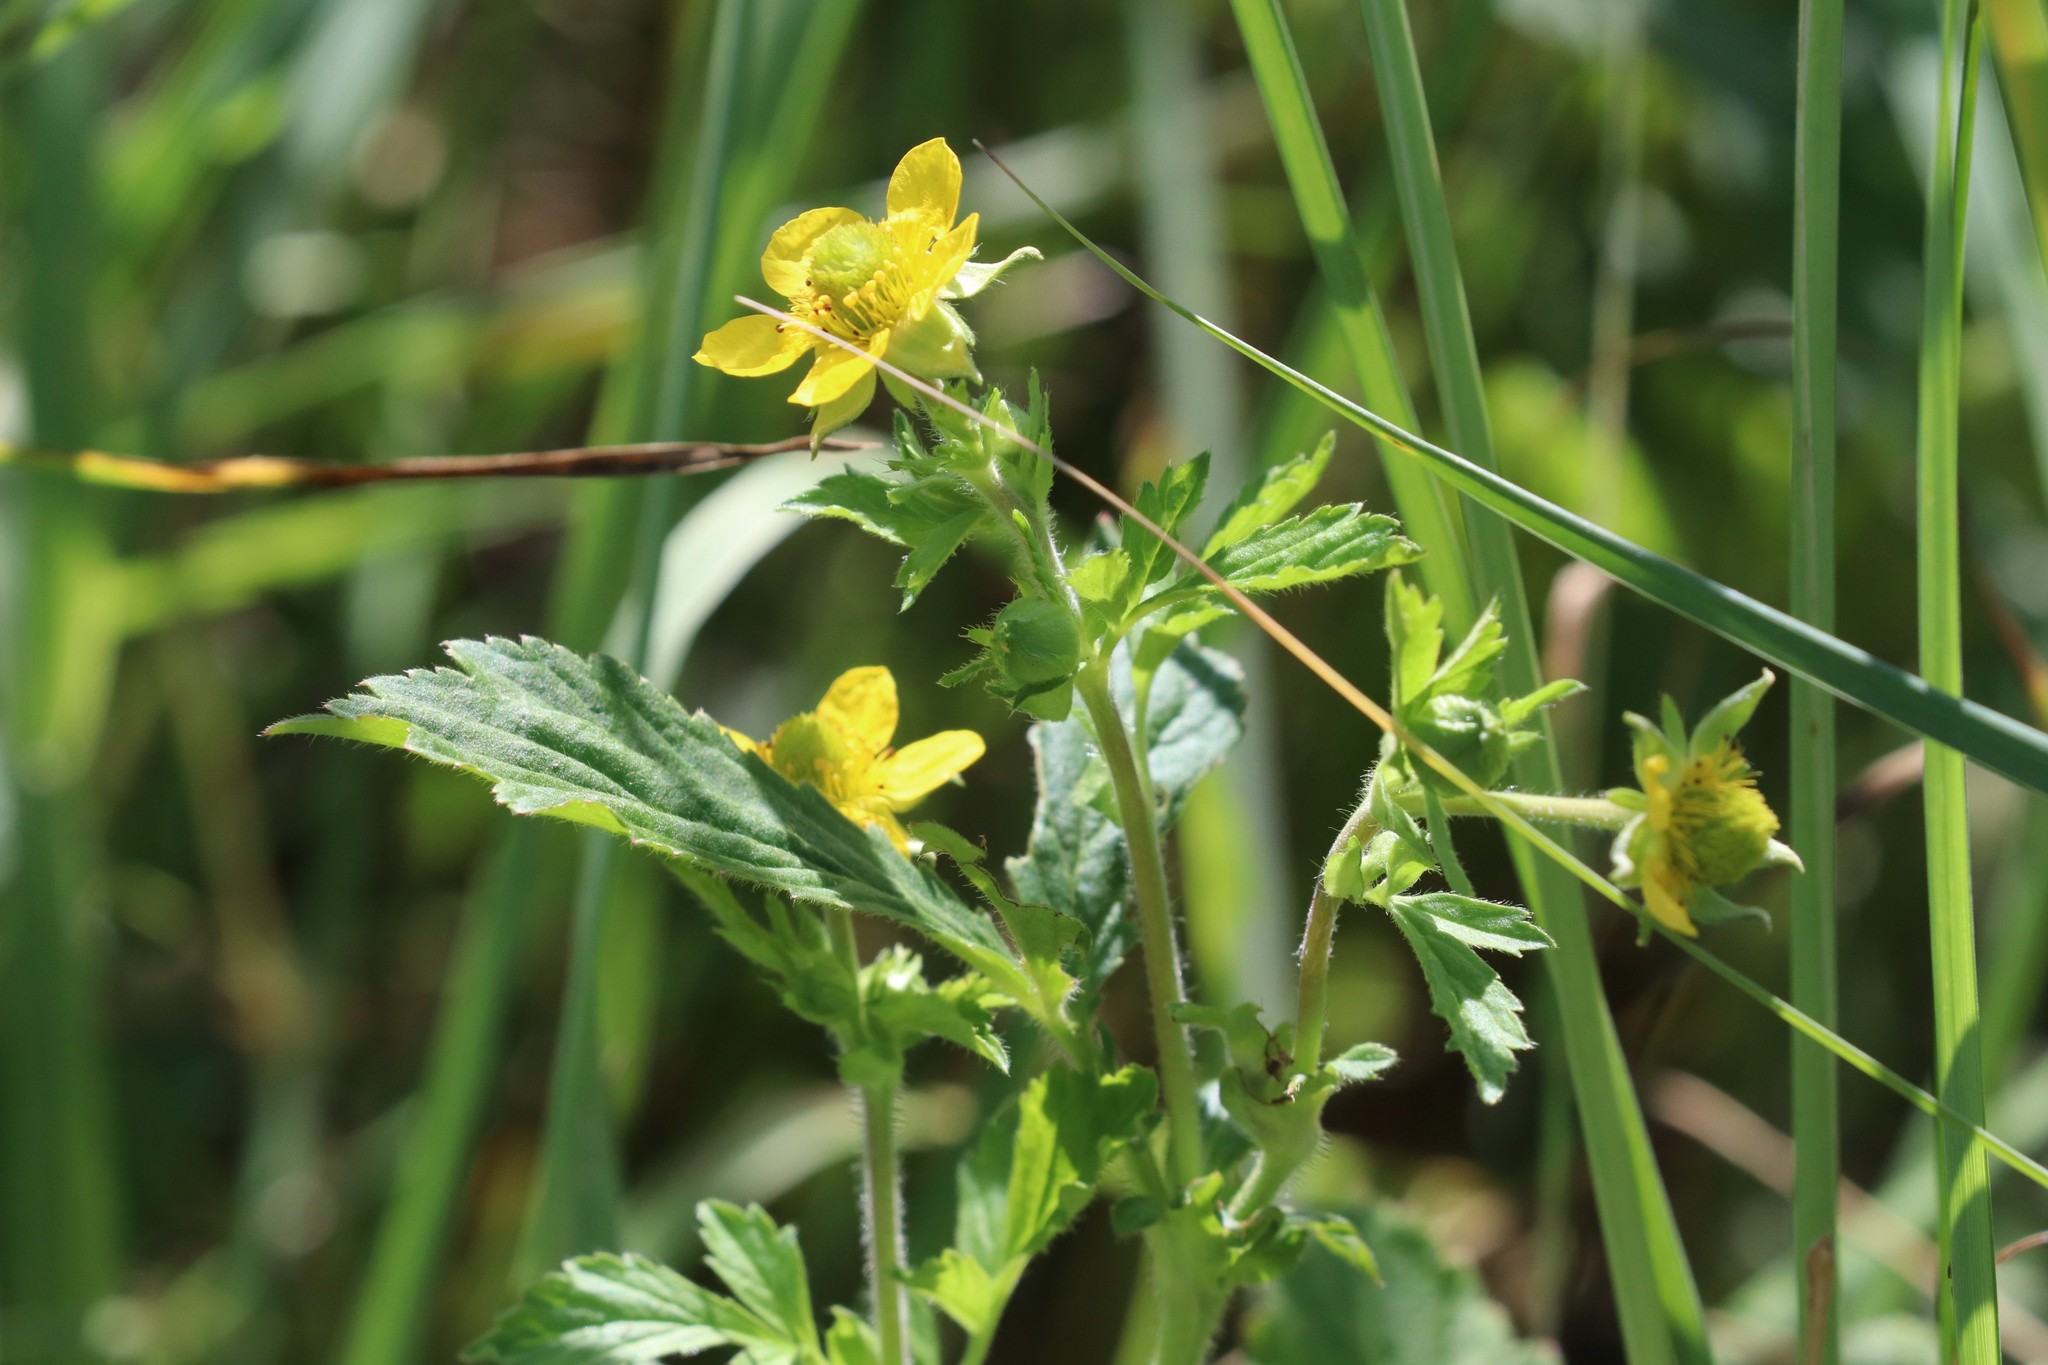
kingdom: Plantae
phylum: Tracheophyta
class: Magnoliopsida
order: Rosales
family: Rosaceae
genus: Geum
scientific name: Geum aleppicum
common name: Yellow avens
